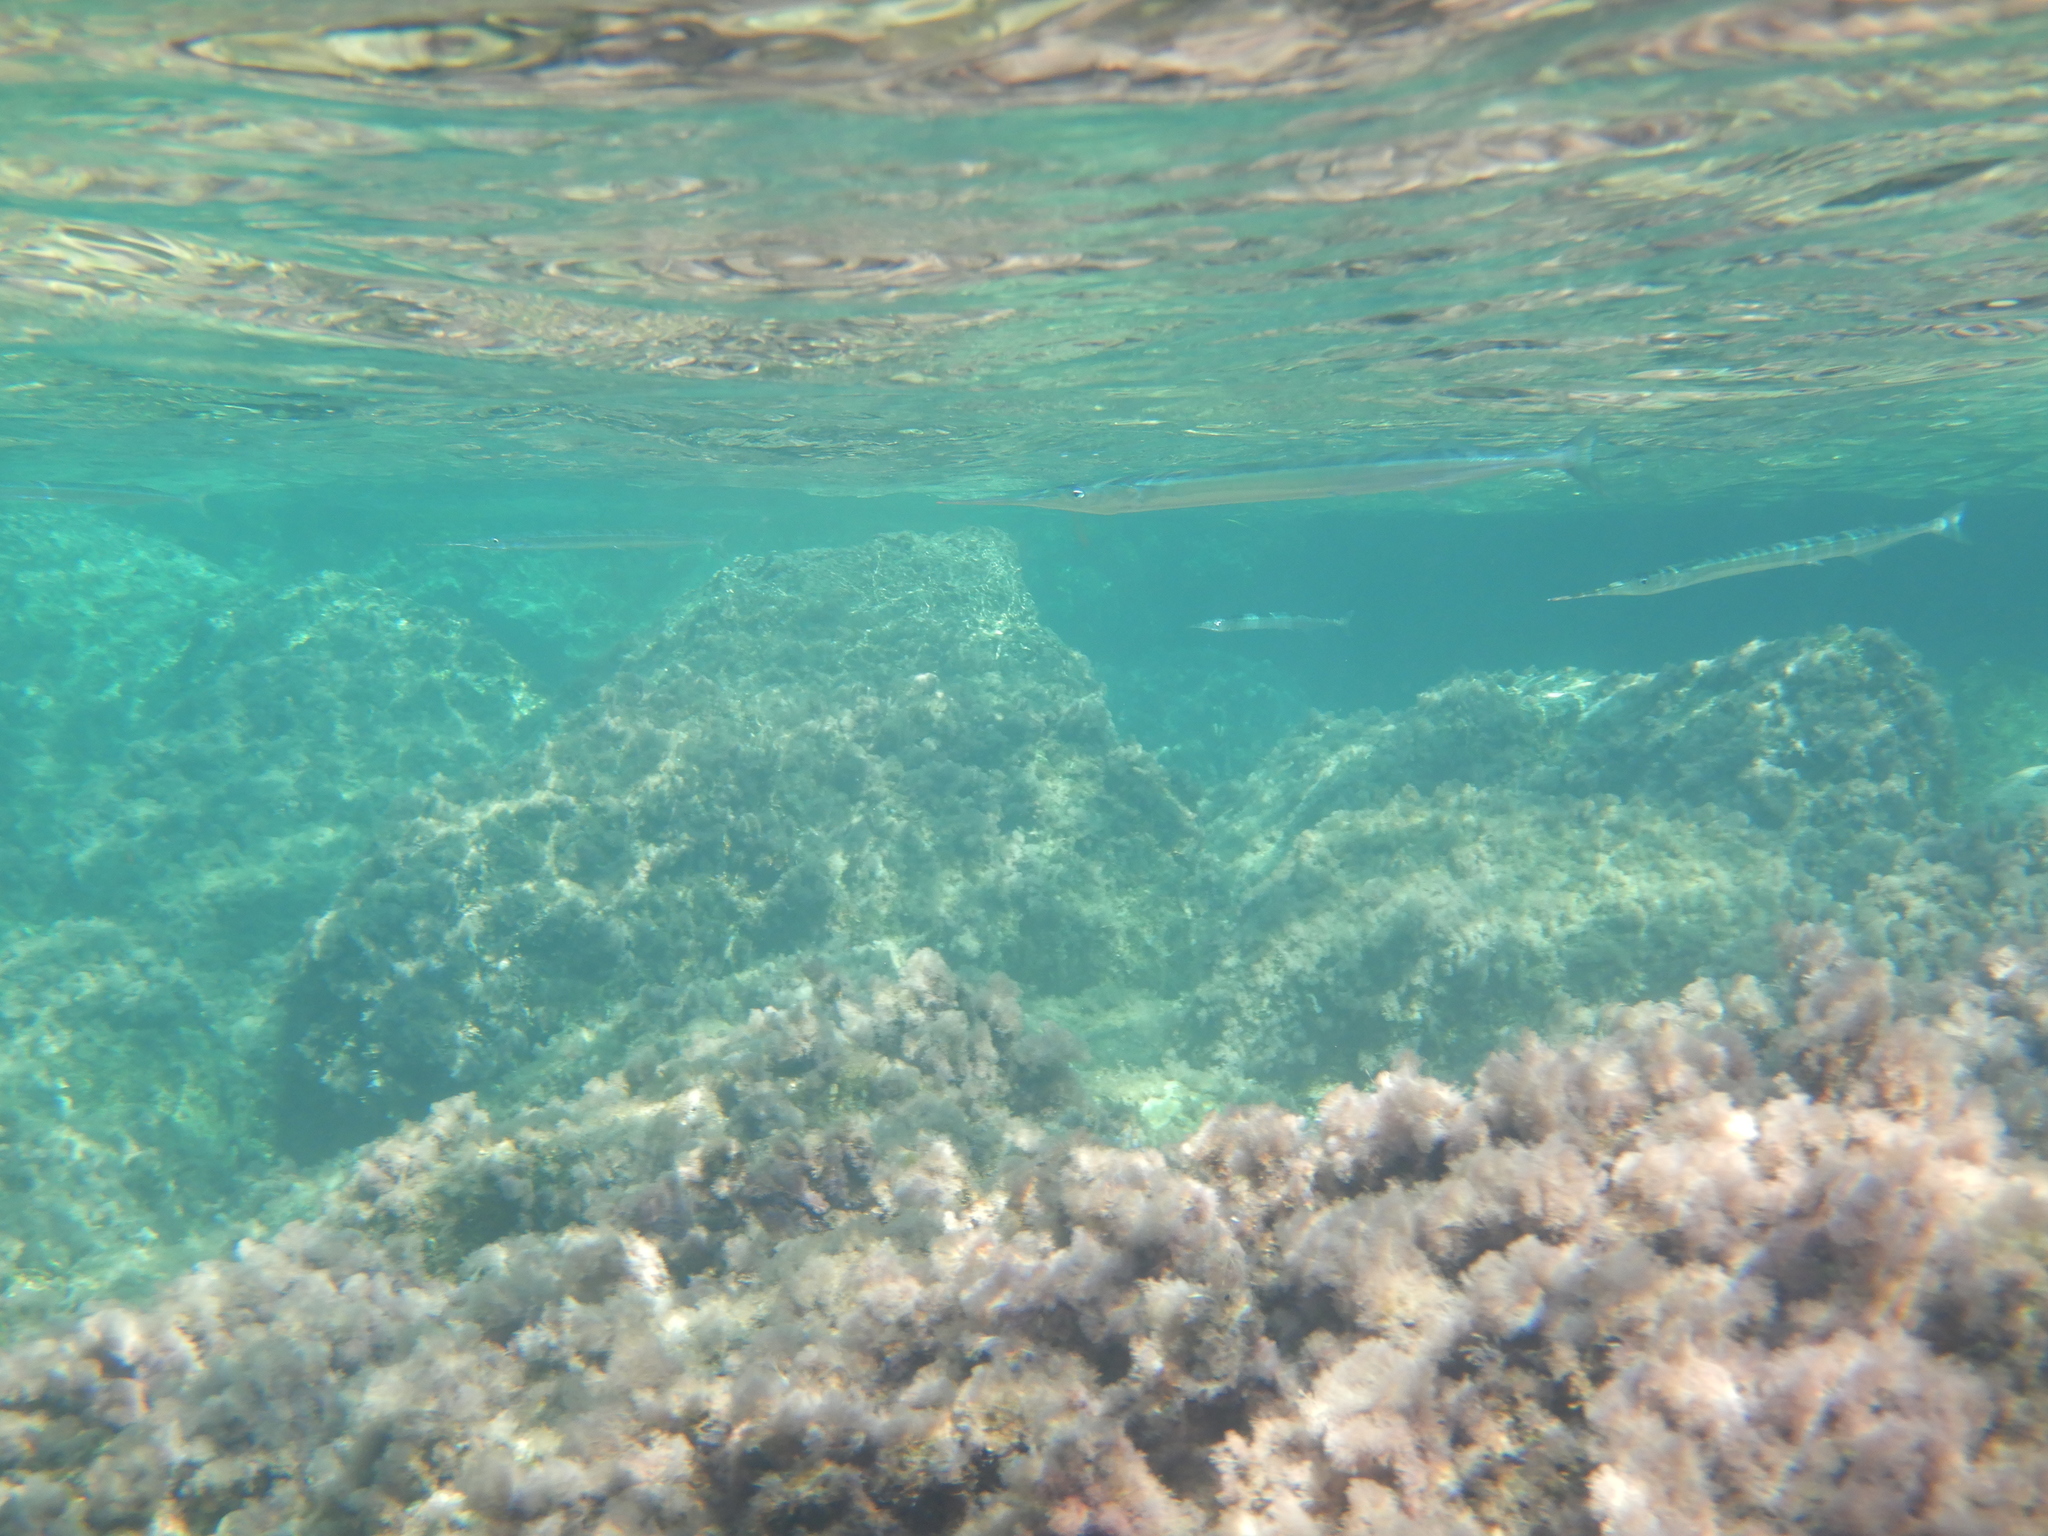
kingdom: Animalia
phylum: Chordata
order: Beloniformes
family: Belonidae
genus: Belone
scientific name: Belone belone
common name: Garfish
